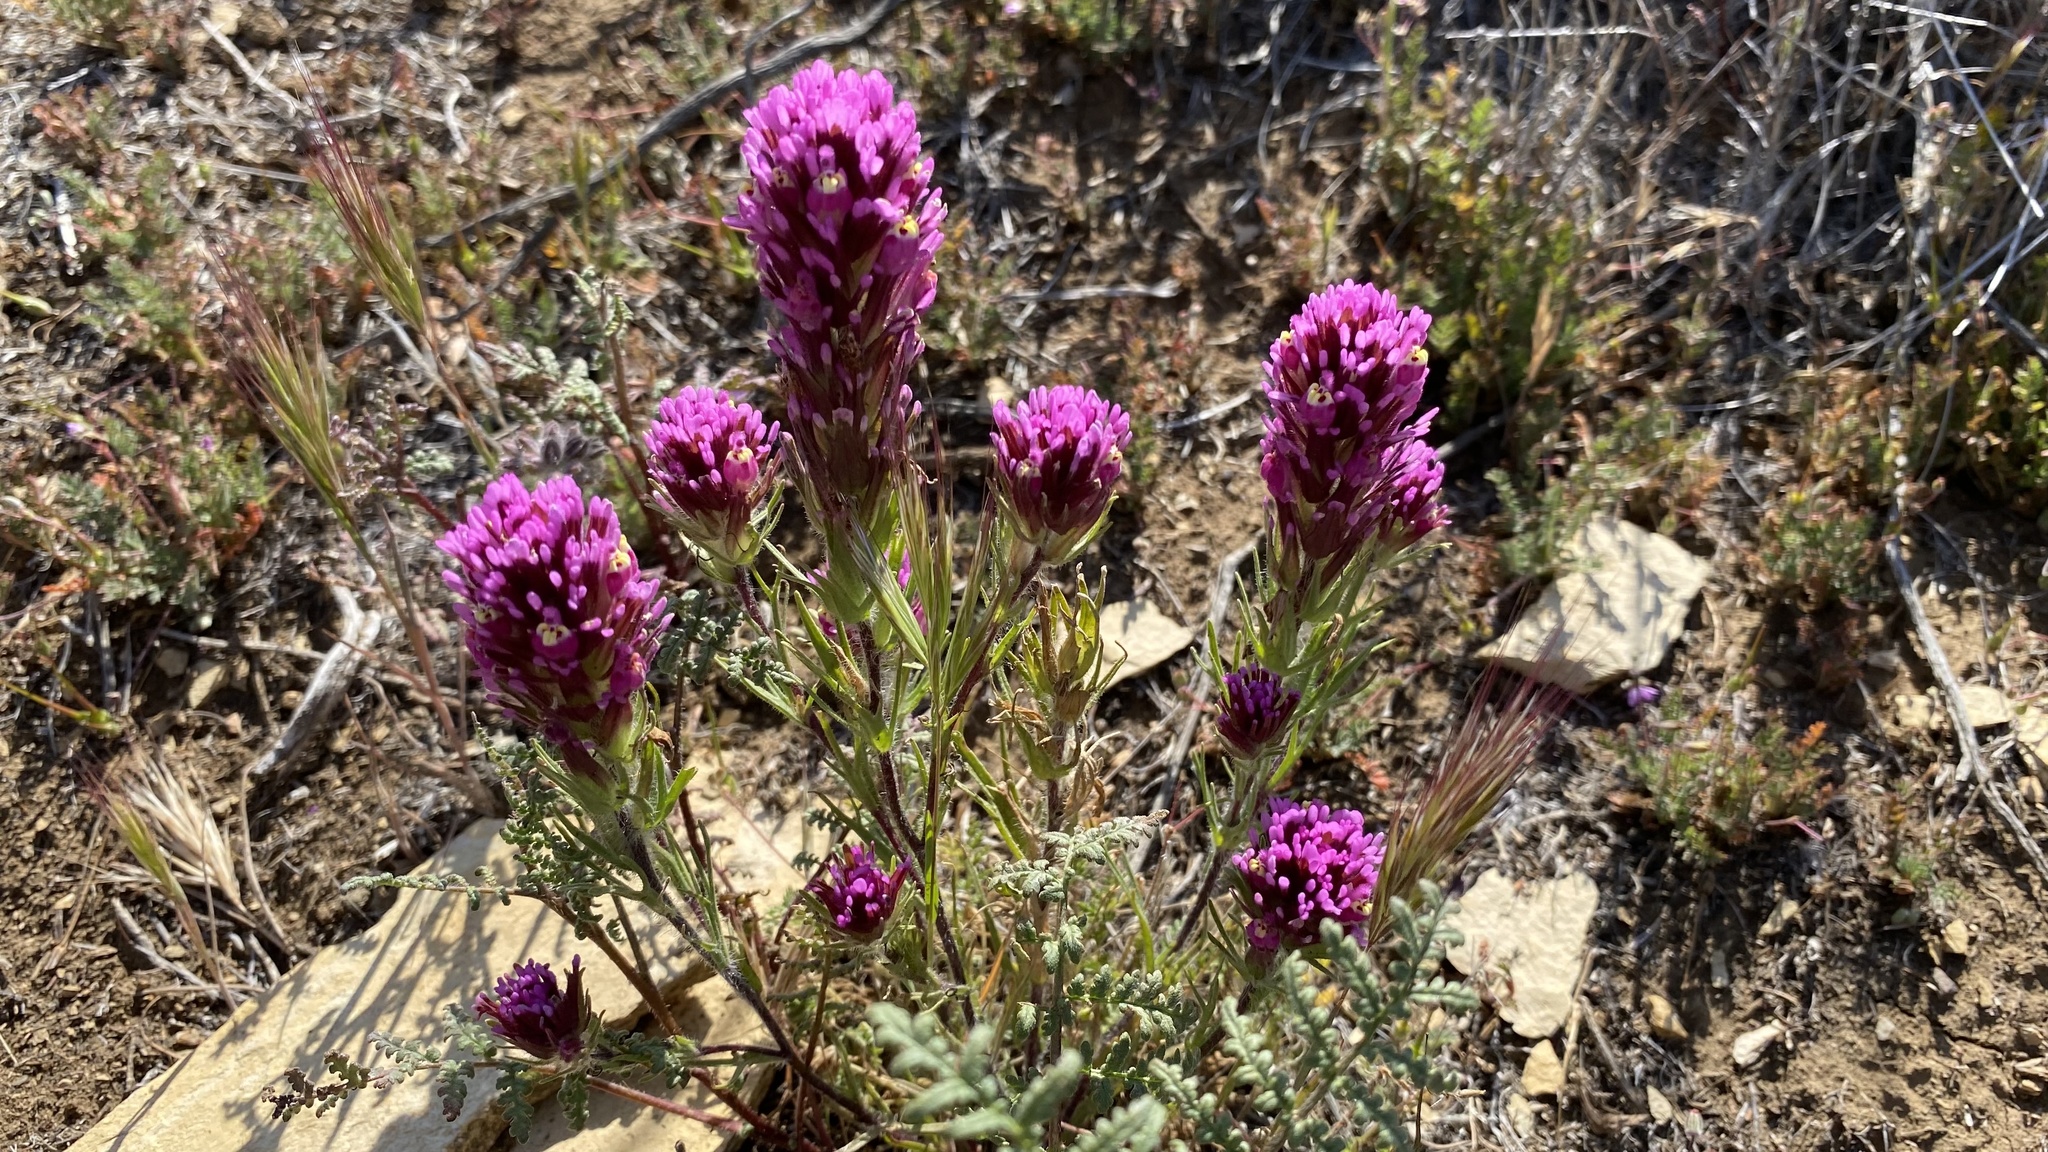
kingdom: Plantae
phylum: Tracheophyta
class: Magnoliopsida
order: Lamiales
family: Orobanchaceae
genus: Castilleja
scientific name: Castilleja exserta
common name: Purple owl-clover
